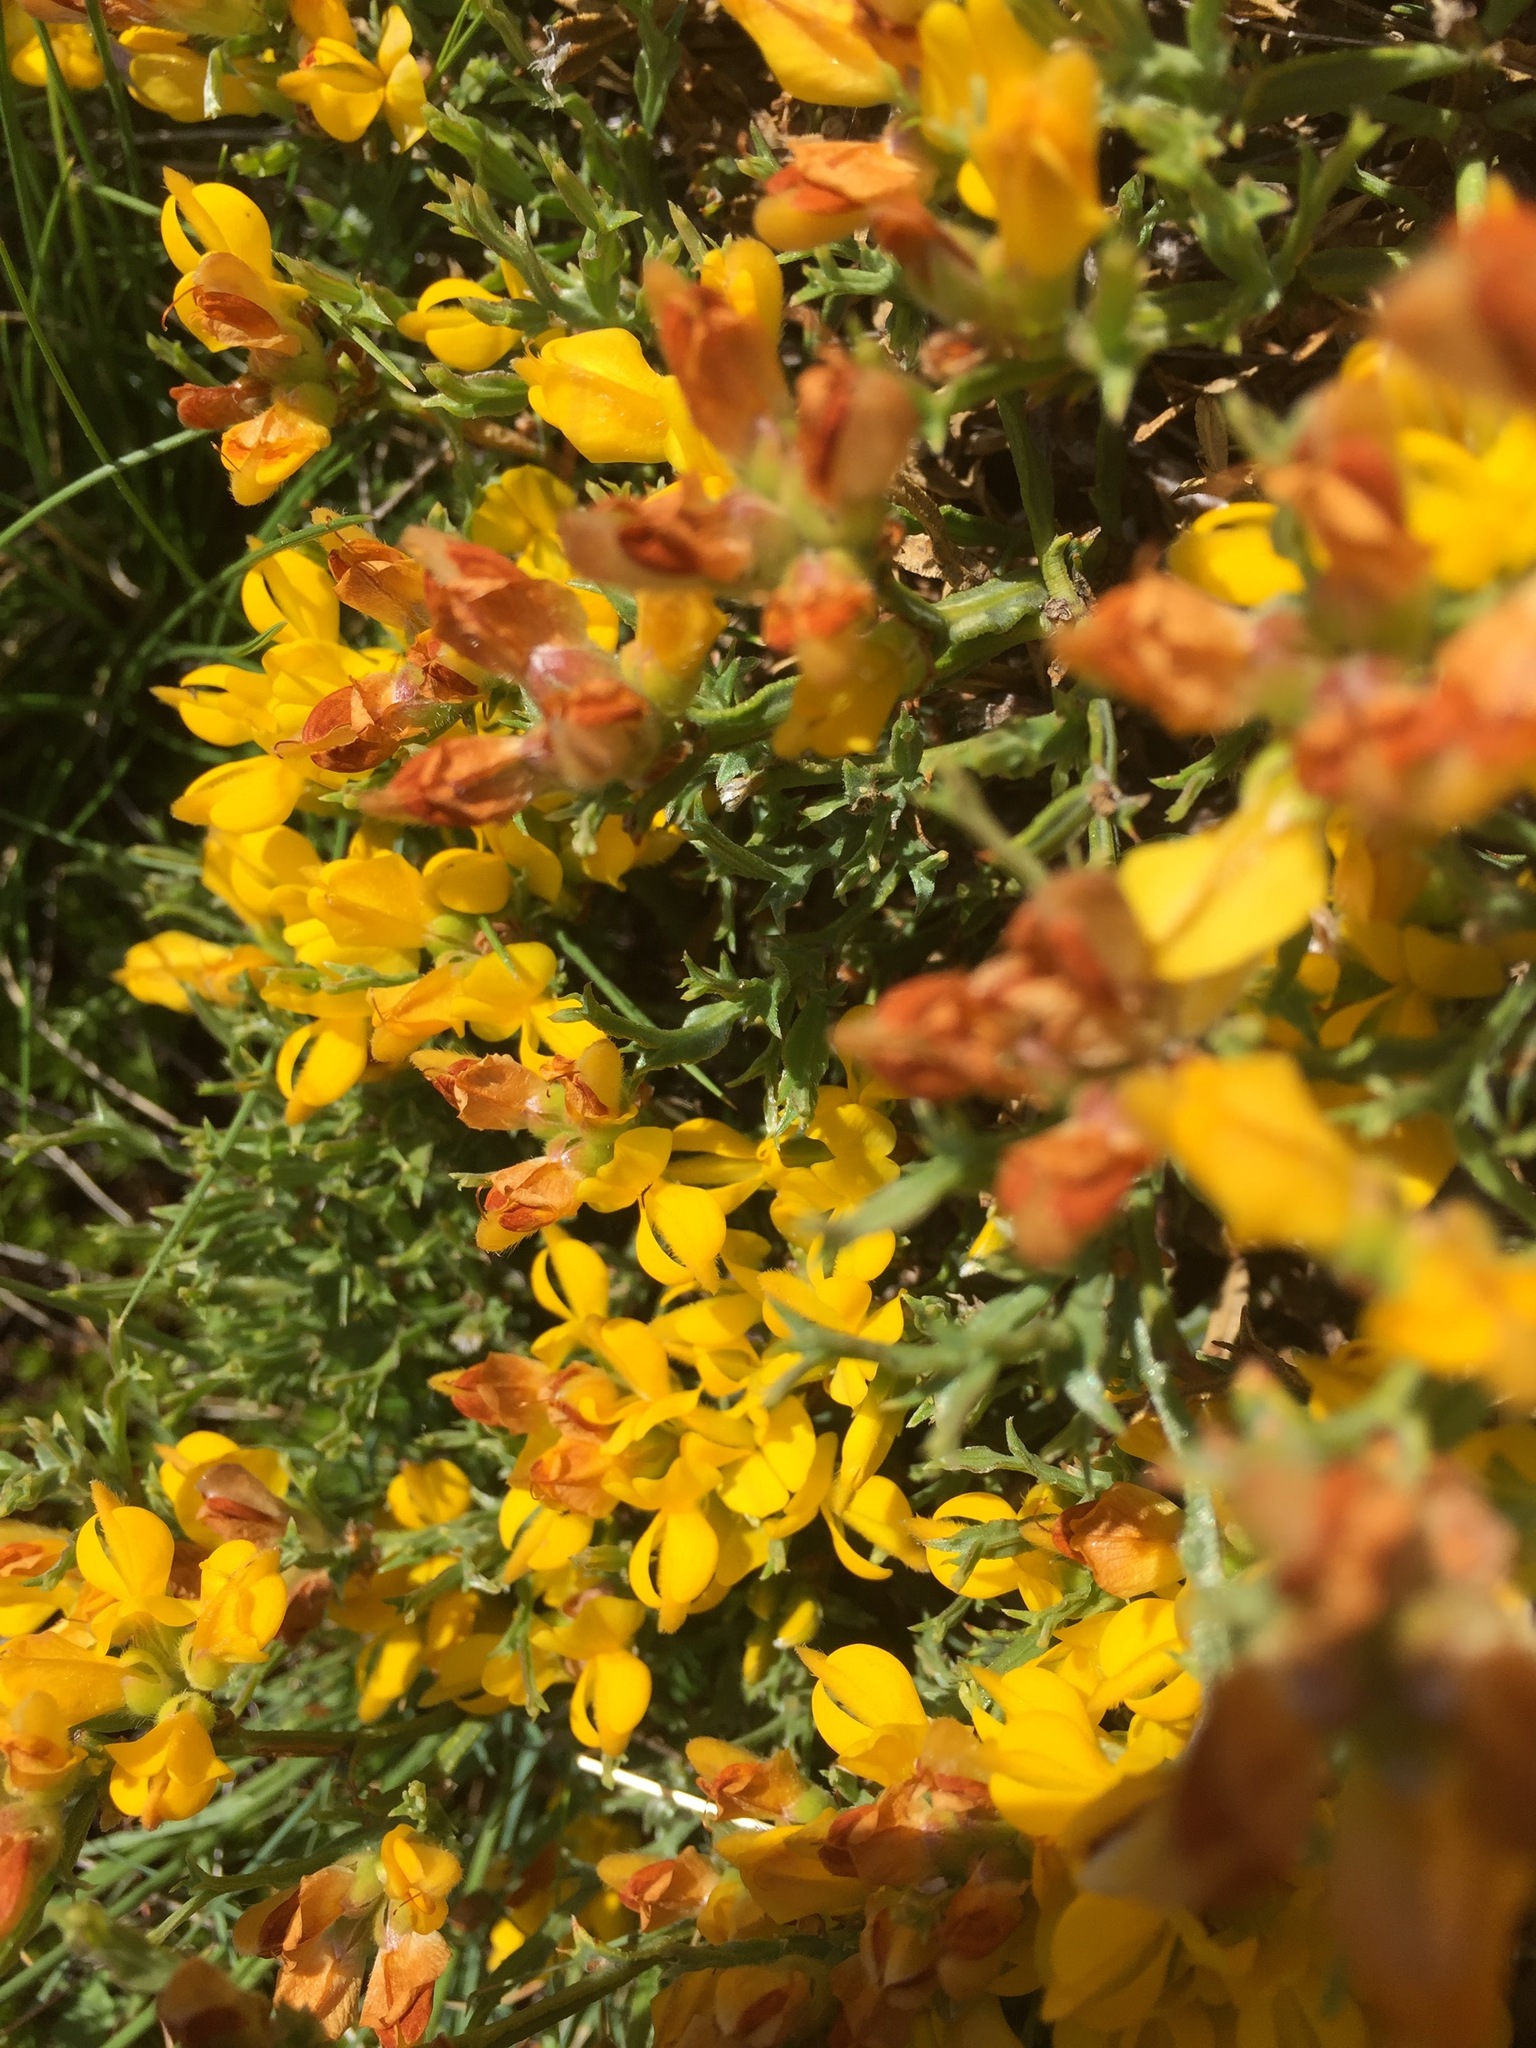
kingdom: Plantae
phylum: Tracheophyta
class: Magnoliopsida
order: Fabales
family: Fabaceae
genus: Genista
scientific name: Genista tridentata
